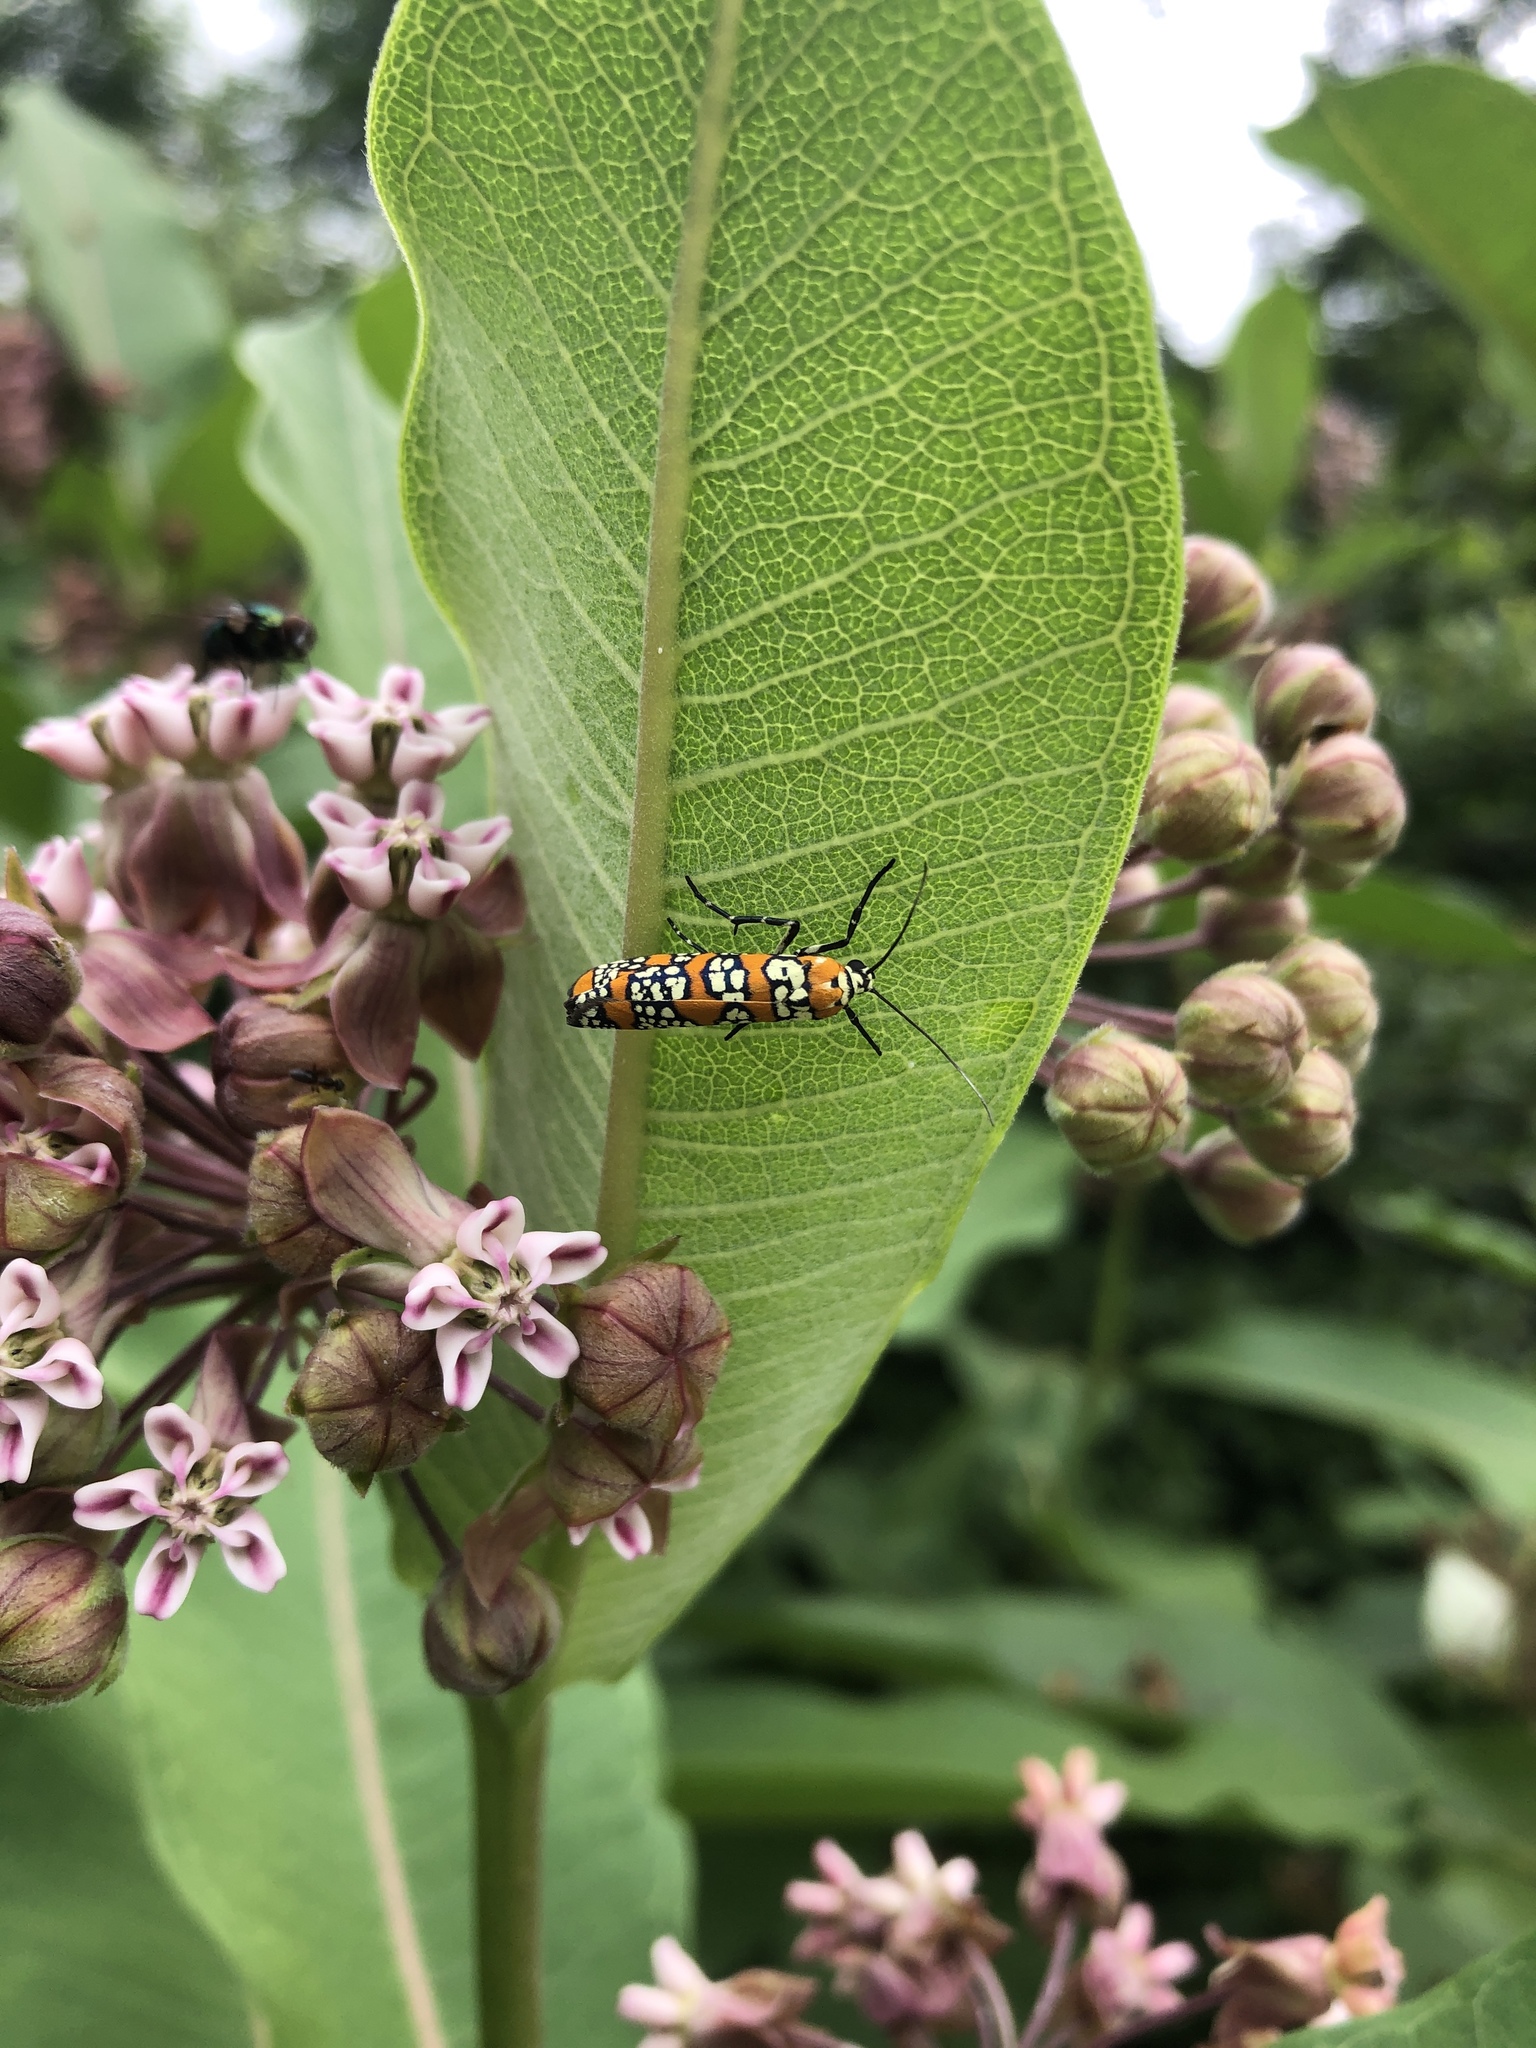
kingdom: Animalia
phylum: Arthropoda
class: Insecta
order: Lepidoptera
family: Attevidae
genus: Atteva
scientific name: Atteva punctella
